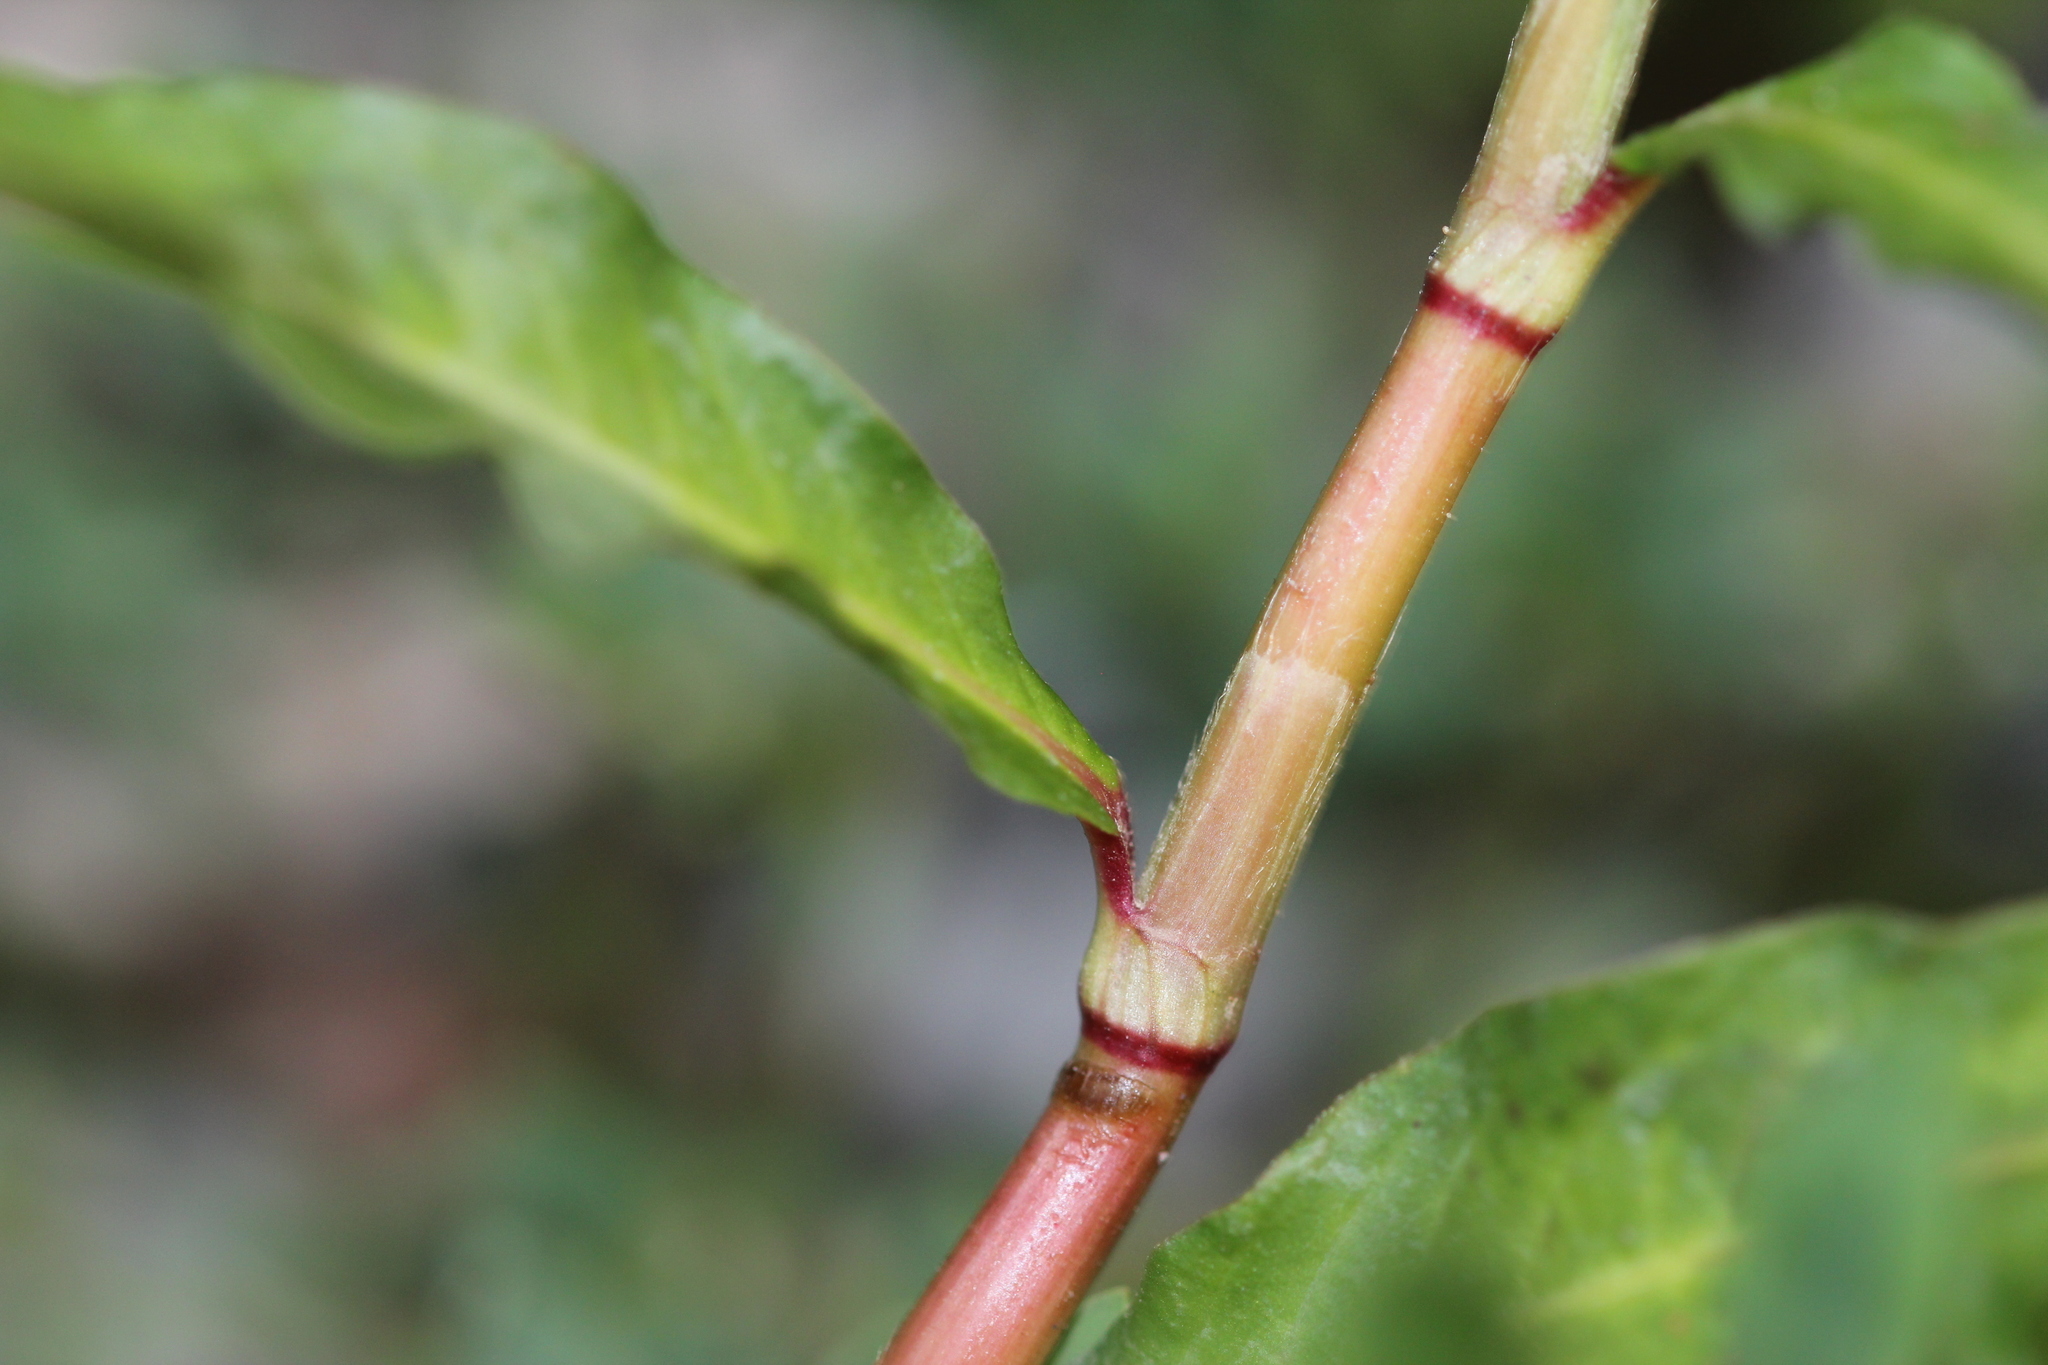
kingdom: Plantae
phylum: Tracheophyta
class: Magnoliopsida
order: Caryophyllales
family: Polygonaceae
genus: Persicaria
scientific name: Persicaria maculosa
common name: Redshank
